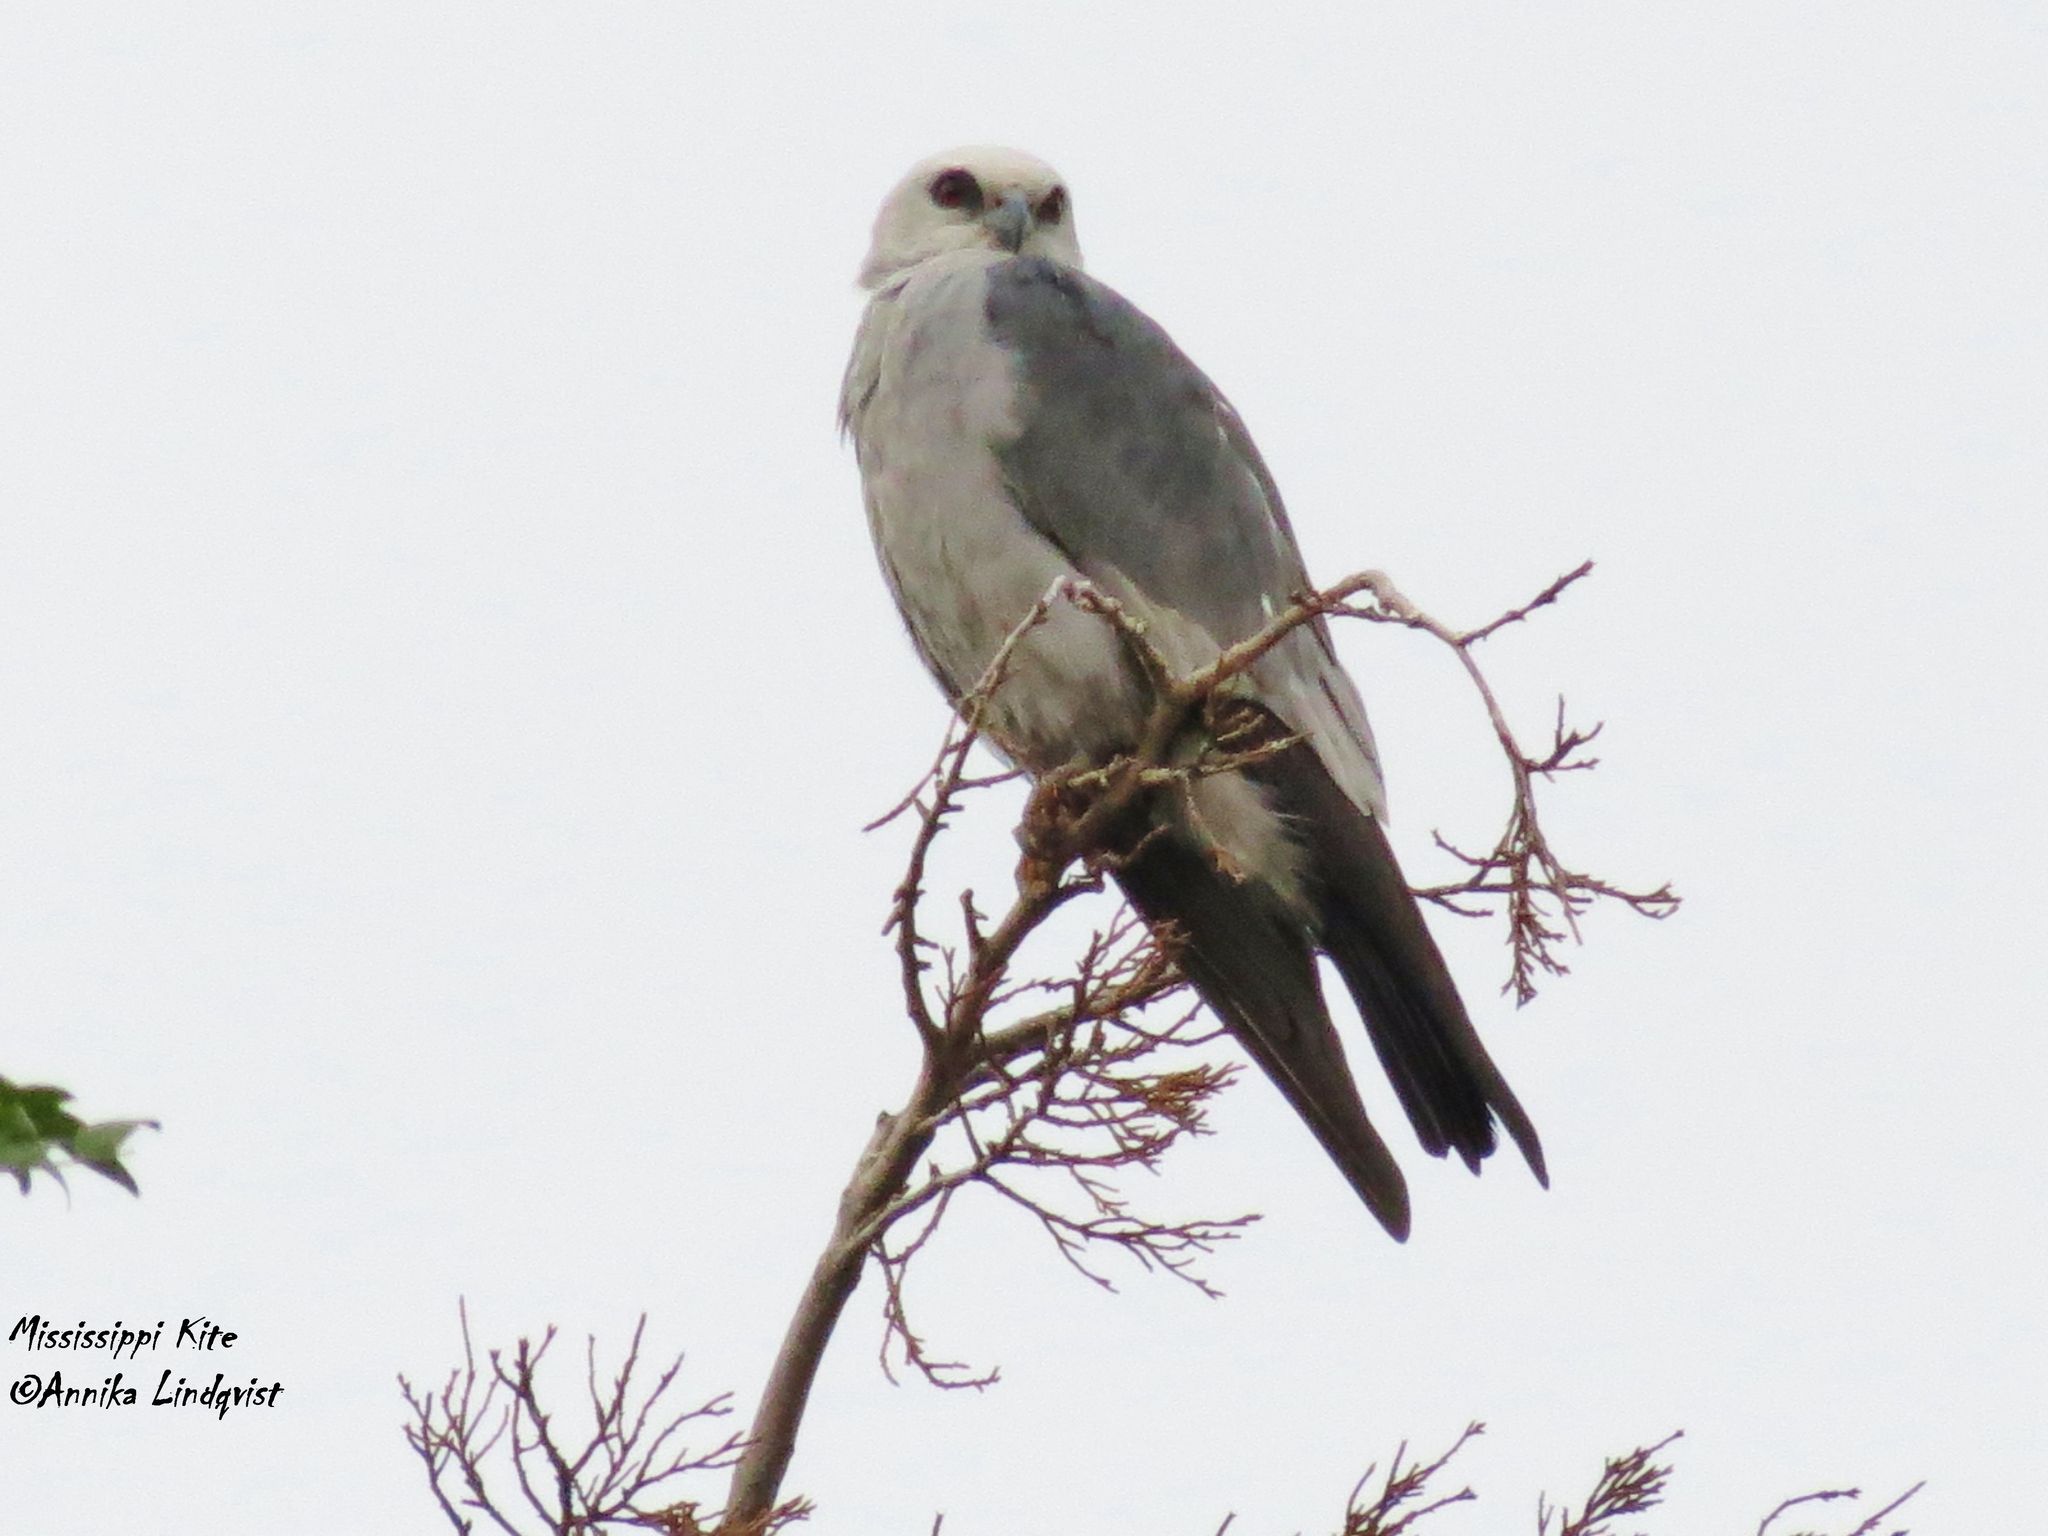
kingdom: Animalia
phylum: Chordata
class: Aves
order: Accipitriformes
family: Accipitridae
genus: Ictinia
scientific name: Ictinia mississippiensis
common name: Mississippi kite
